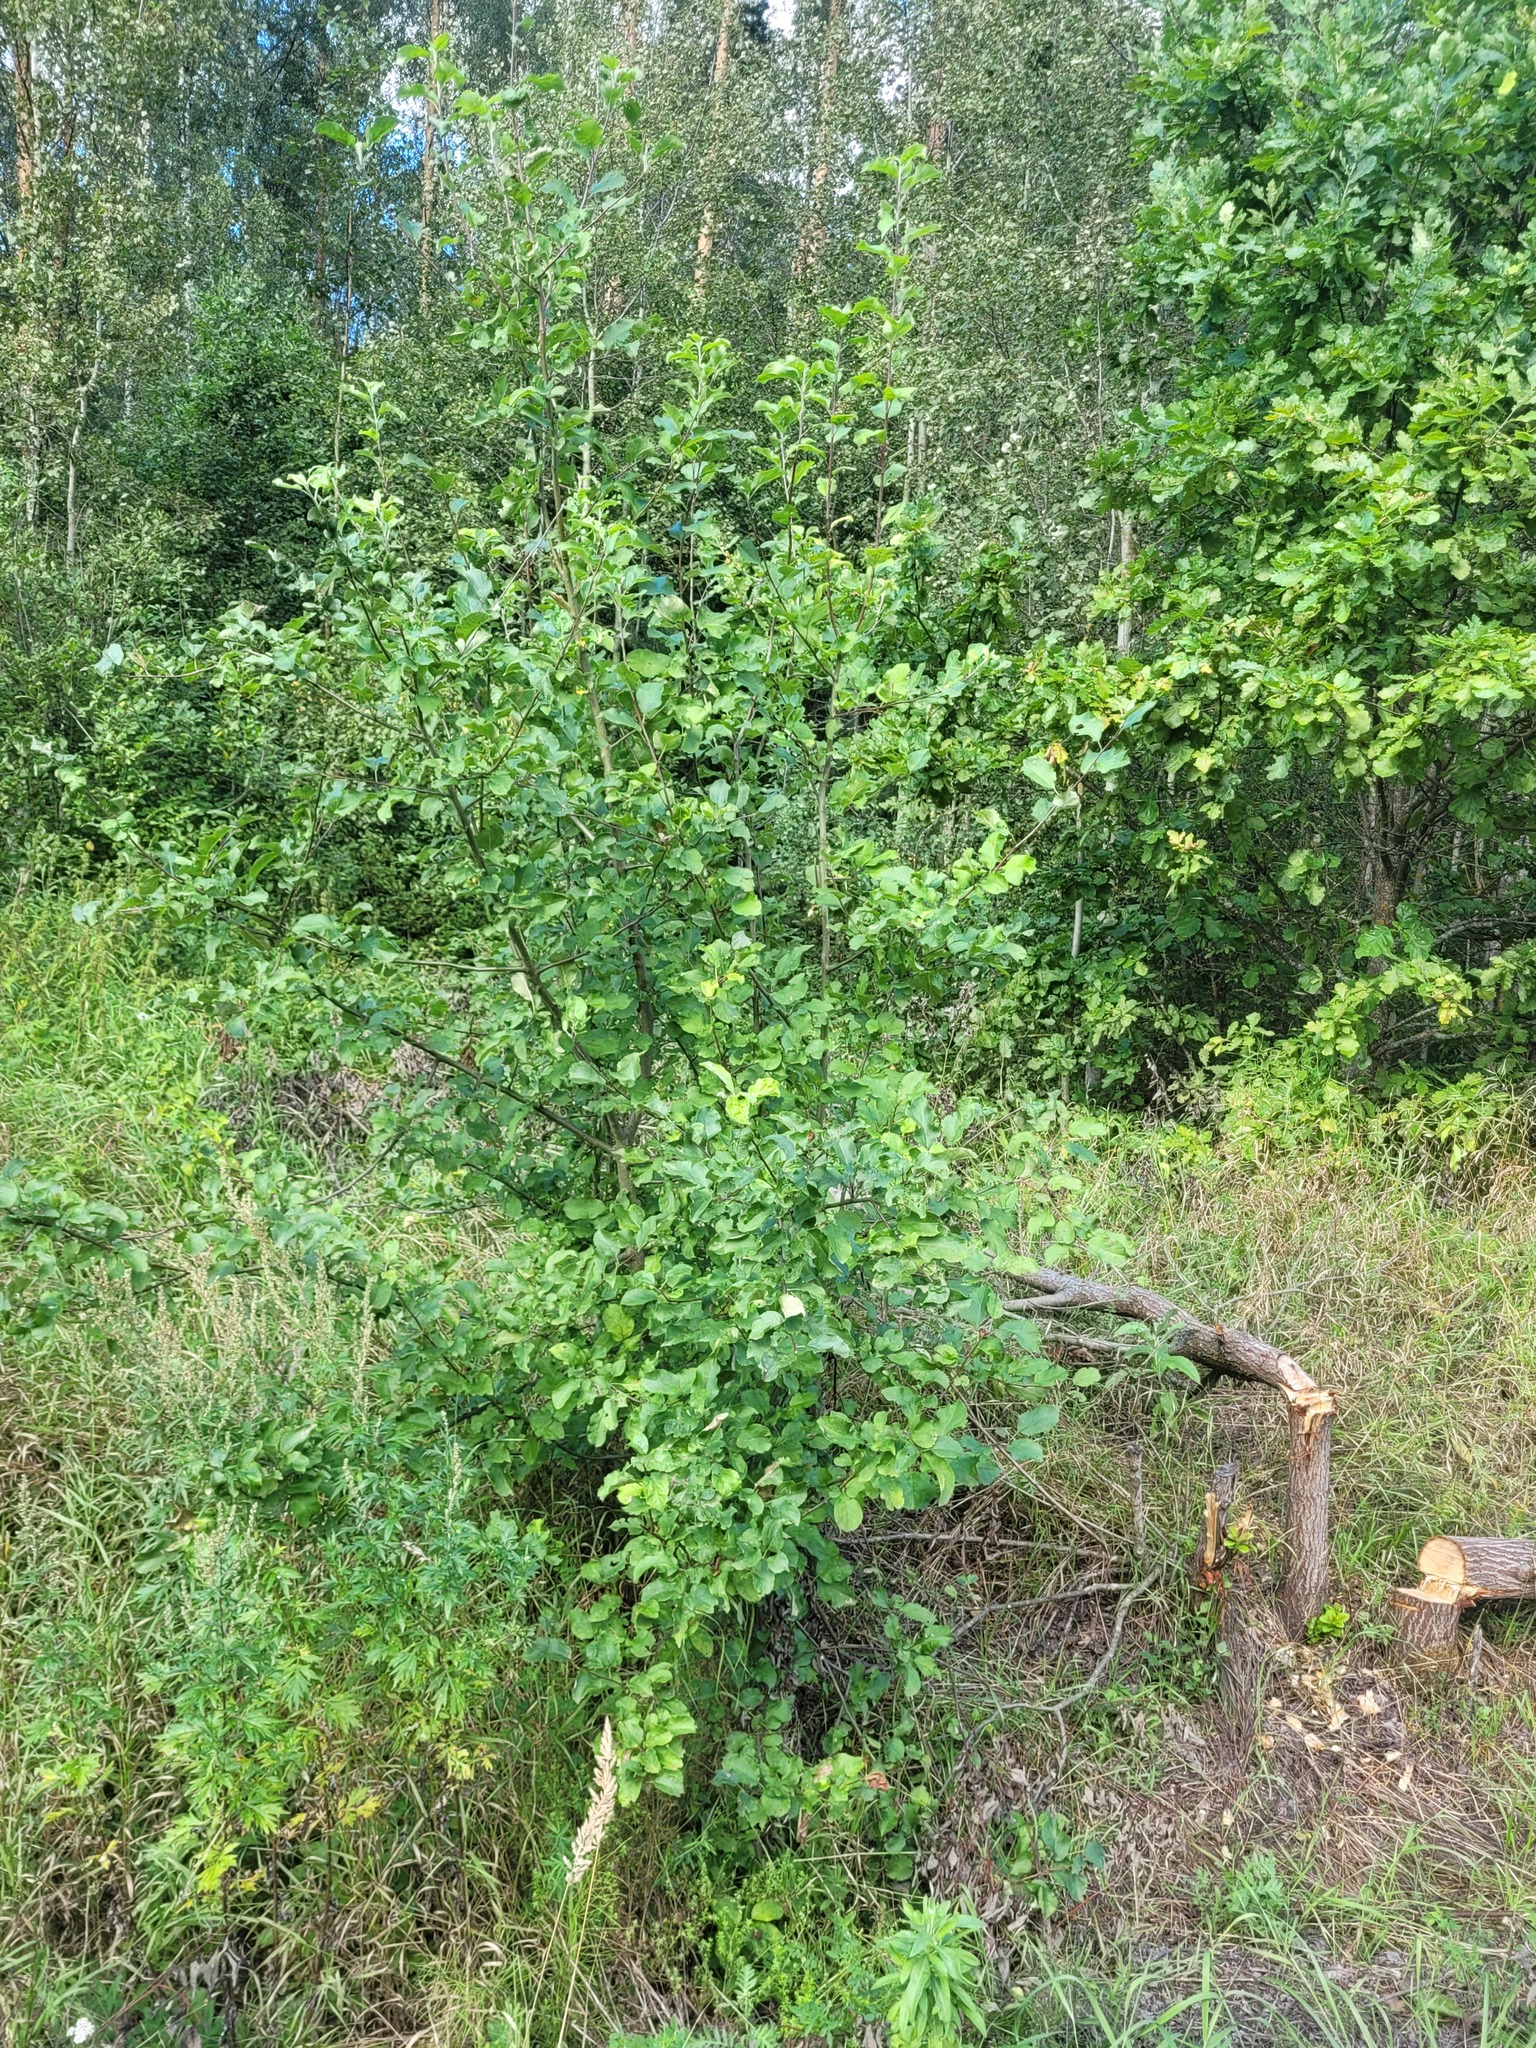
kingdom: Plantae
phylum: Tracheophyta
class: Magnoliopsida
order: Rosales
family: Rosaceae
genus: Malus
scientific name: Malus domestica
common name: Apple
